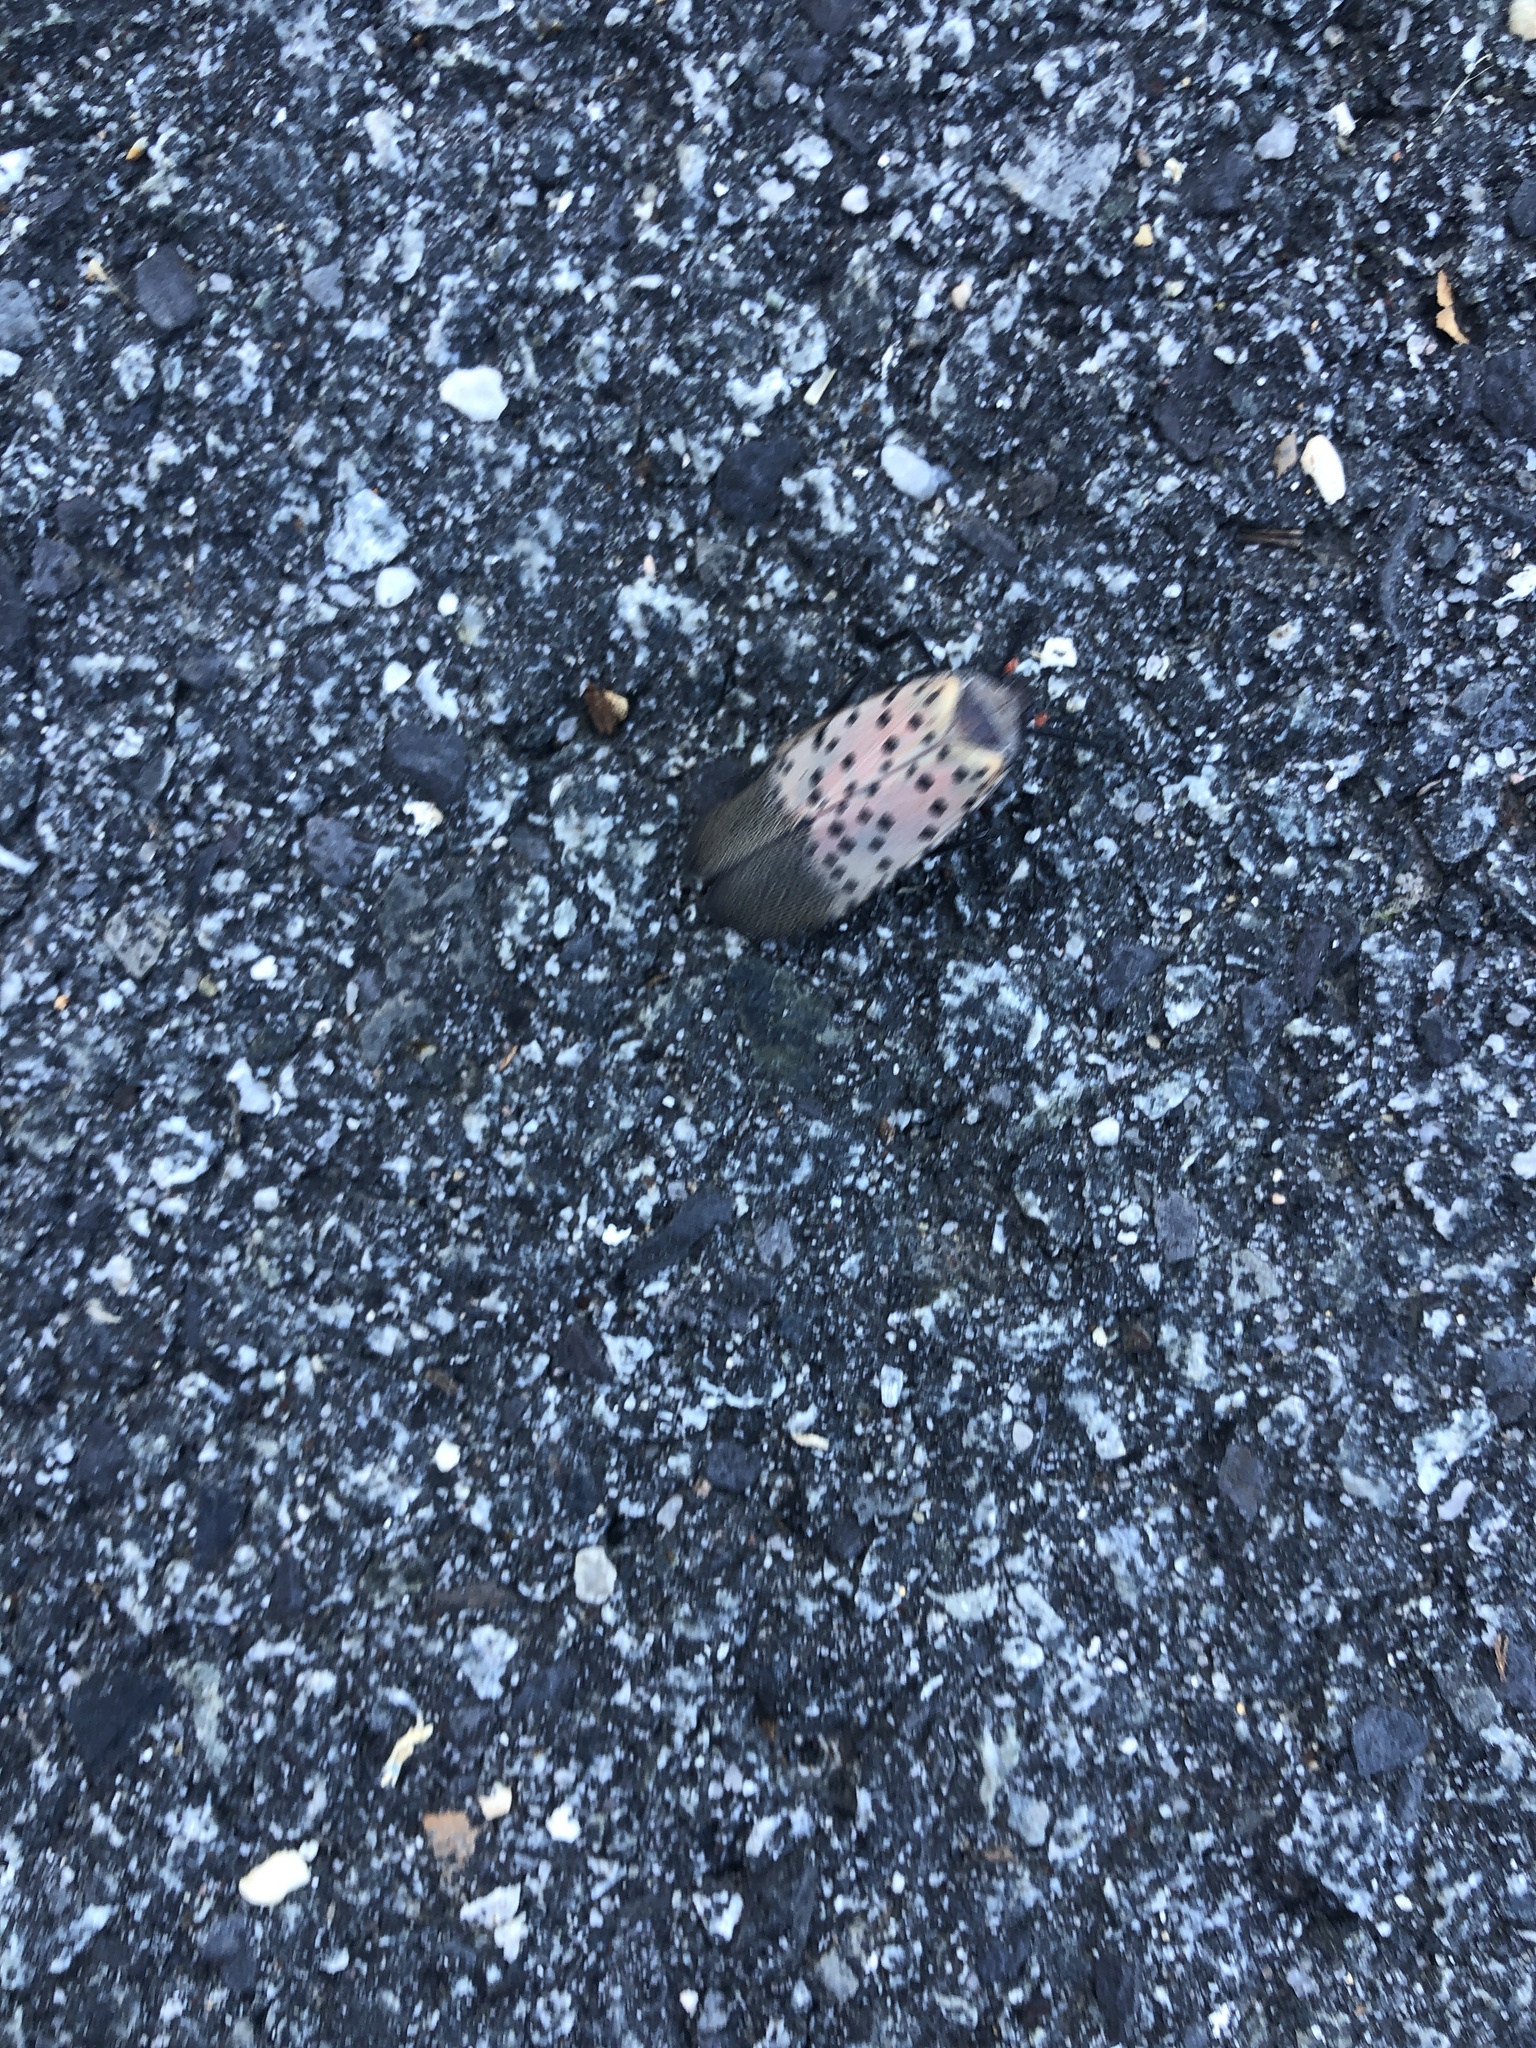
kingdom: Animalia
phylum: Arthropoda
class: Insecta
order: Hemiptera
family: Fulgoridae
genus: Lycorma
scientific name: Lycorma delicatula
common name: Spotted lanternfly
